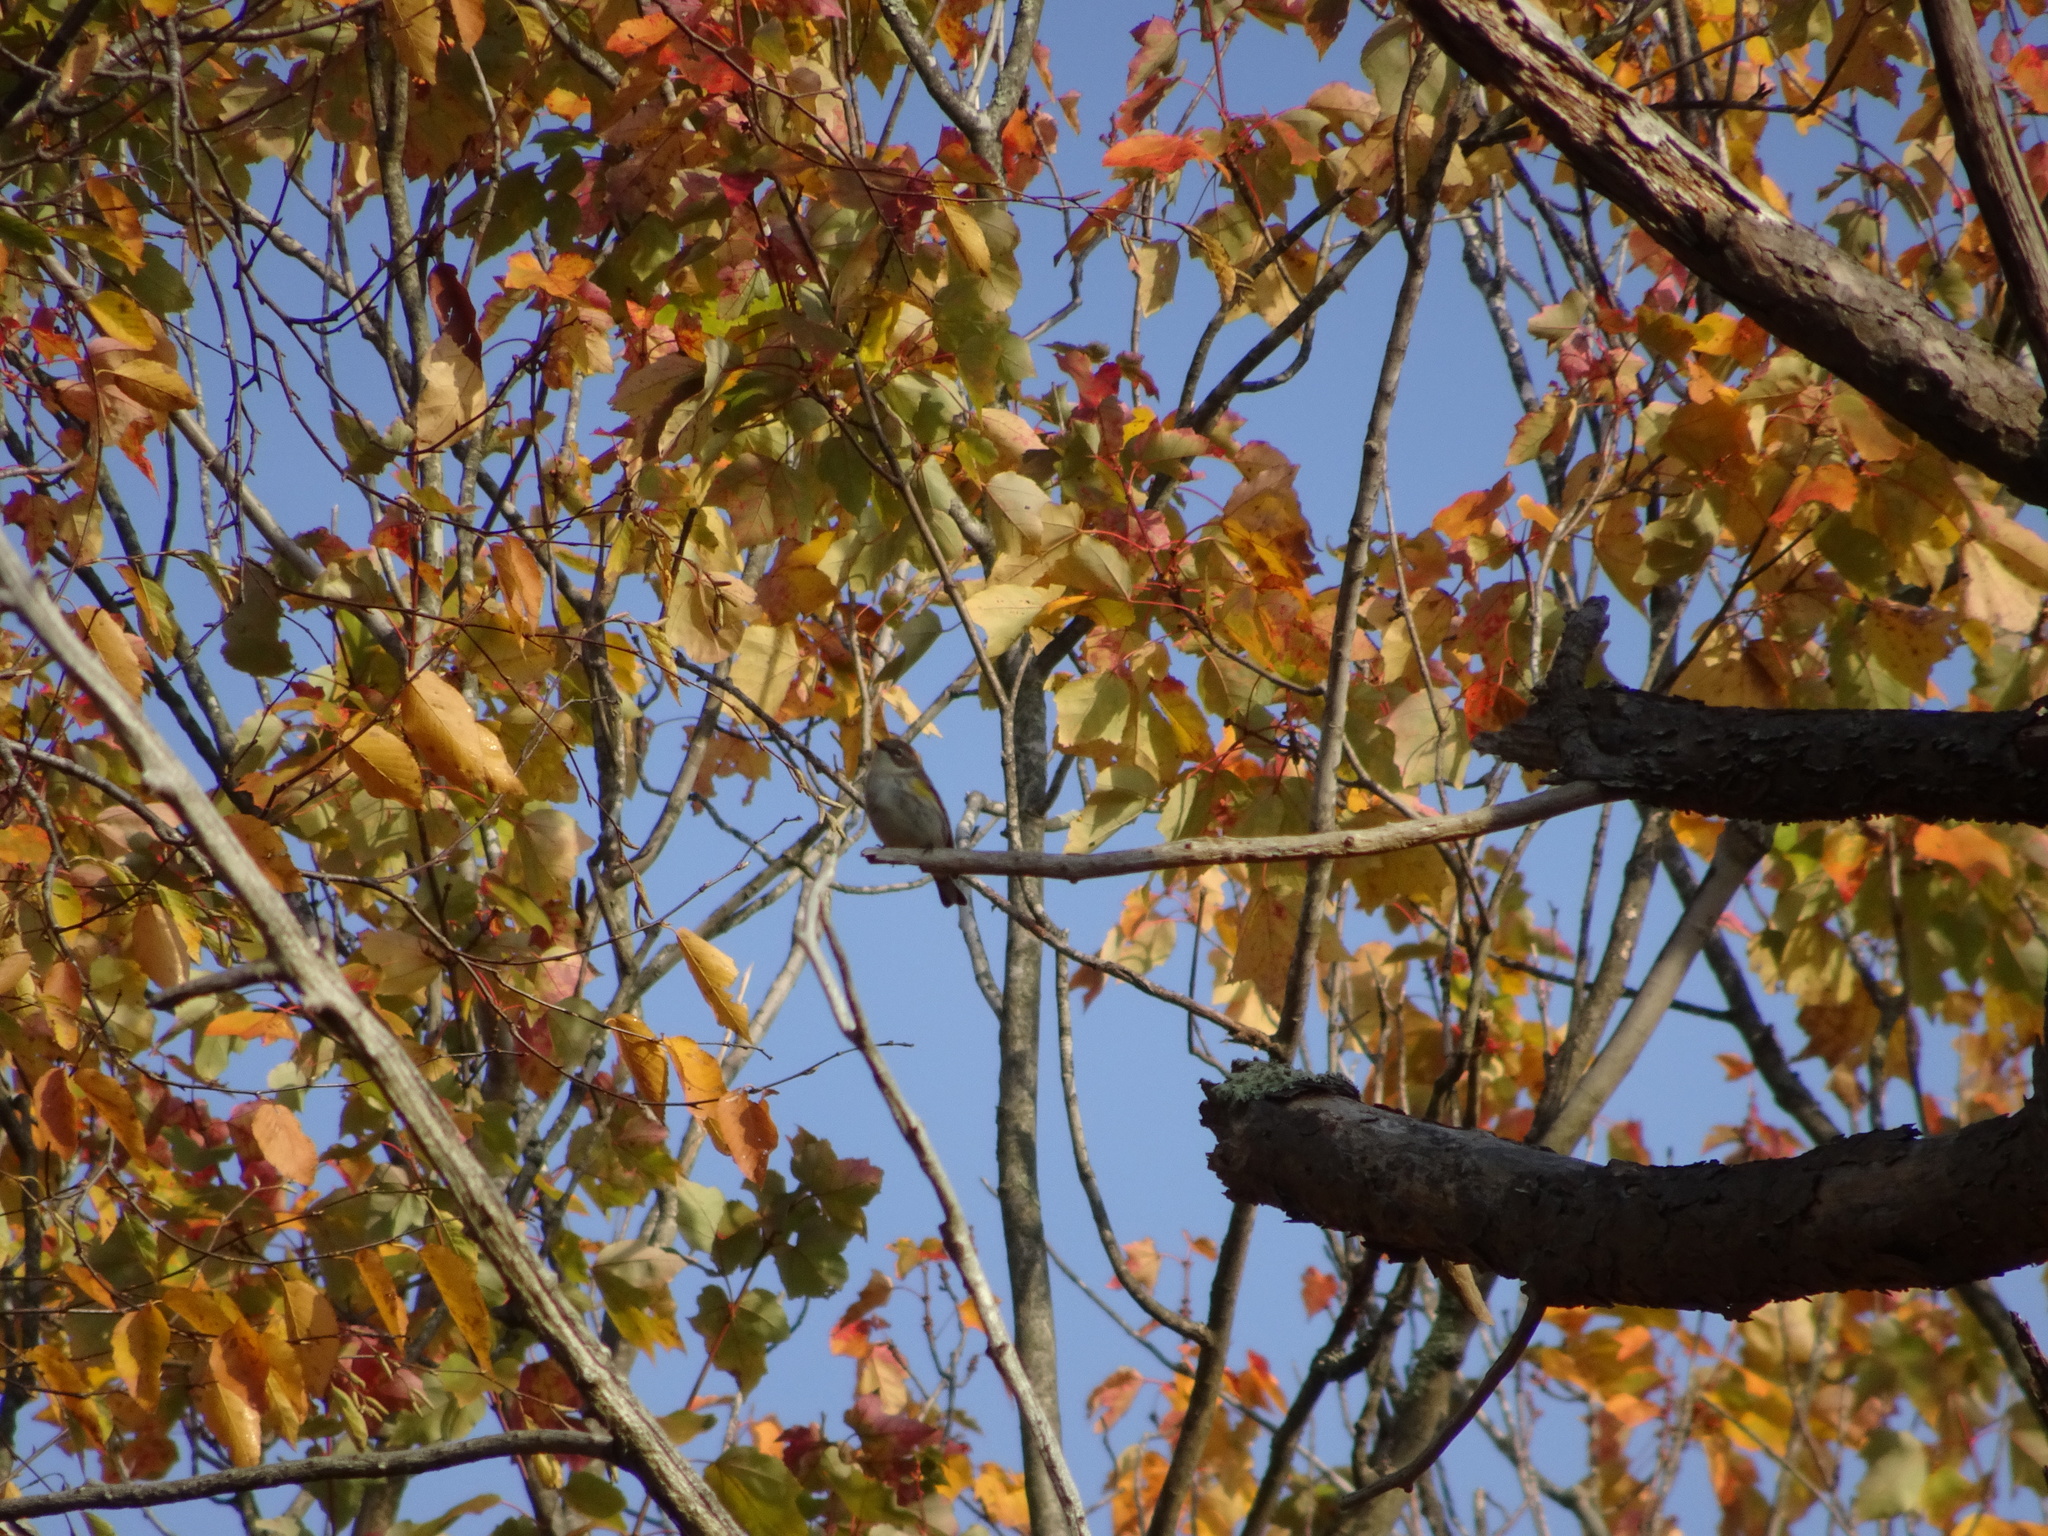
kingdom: Animalia
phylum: Chordata
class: Aves
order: Passeriformes
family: Parulidae
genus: Setophaga
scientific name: Setophaga coronata
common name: Myrtle warbler
